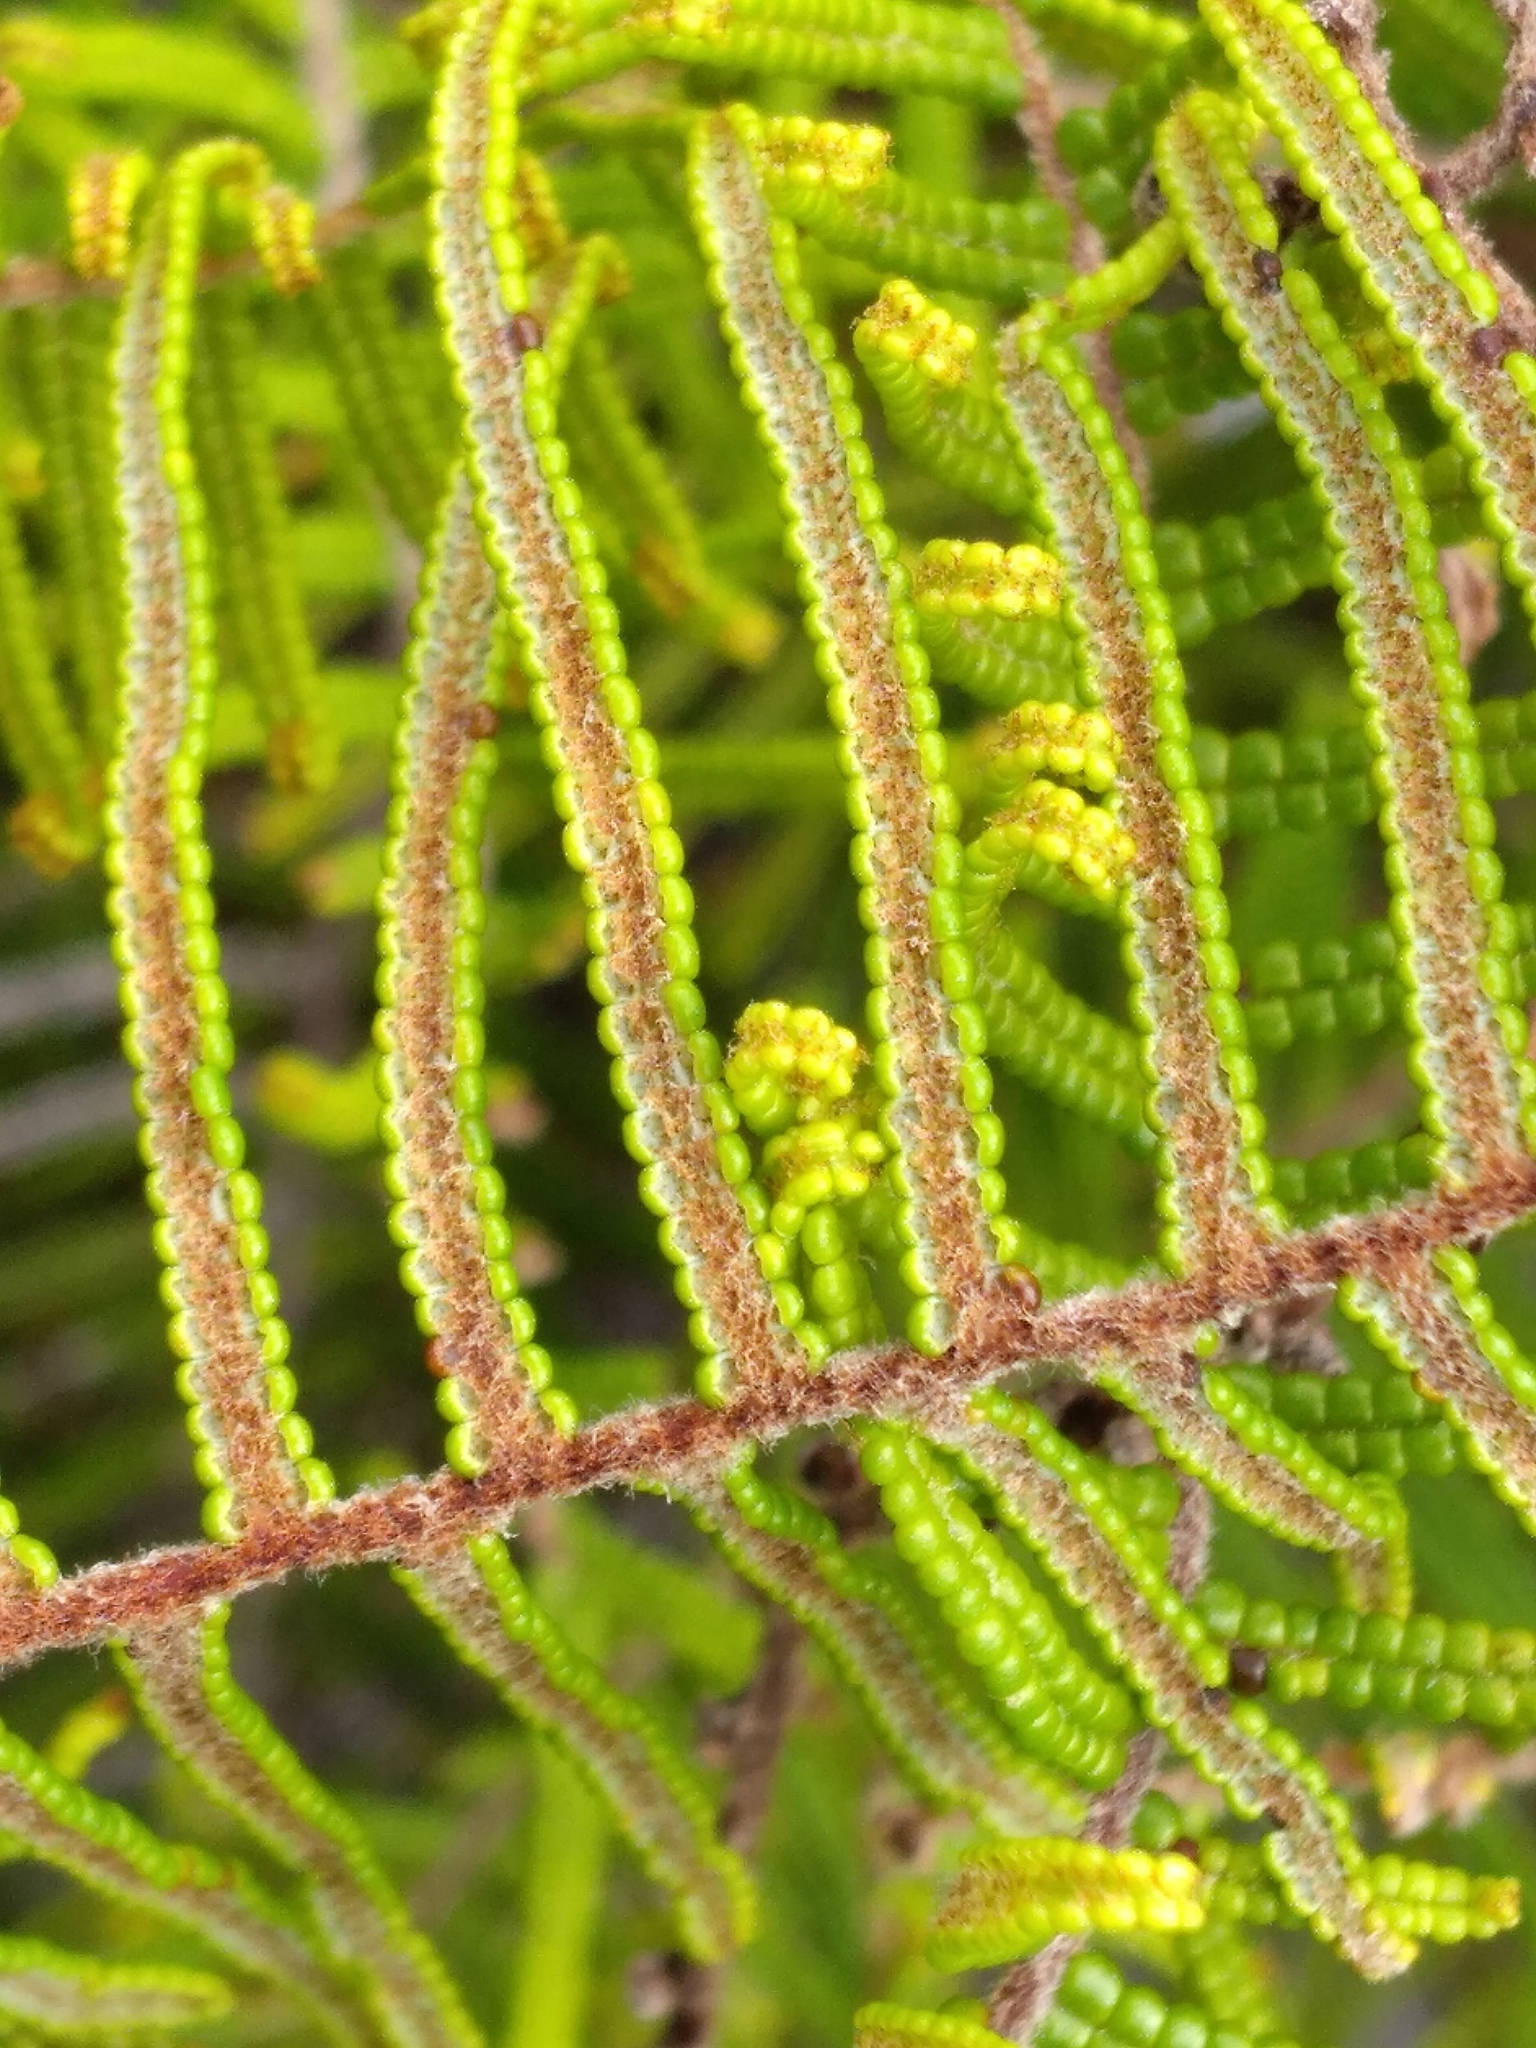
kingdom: Plantae
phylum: Tracheophyta
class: Polypodiopsida
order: Gleicheniales
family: Gleicheniaceae
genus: Gleichenia
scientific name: Gleichenia dicarpa
